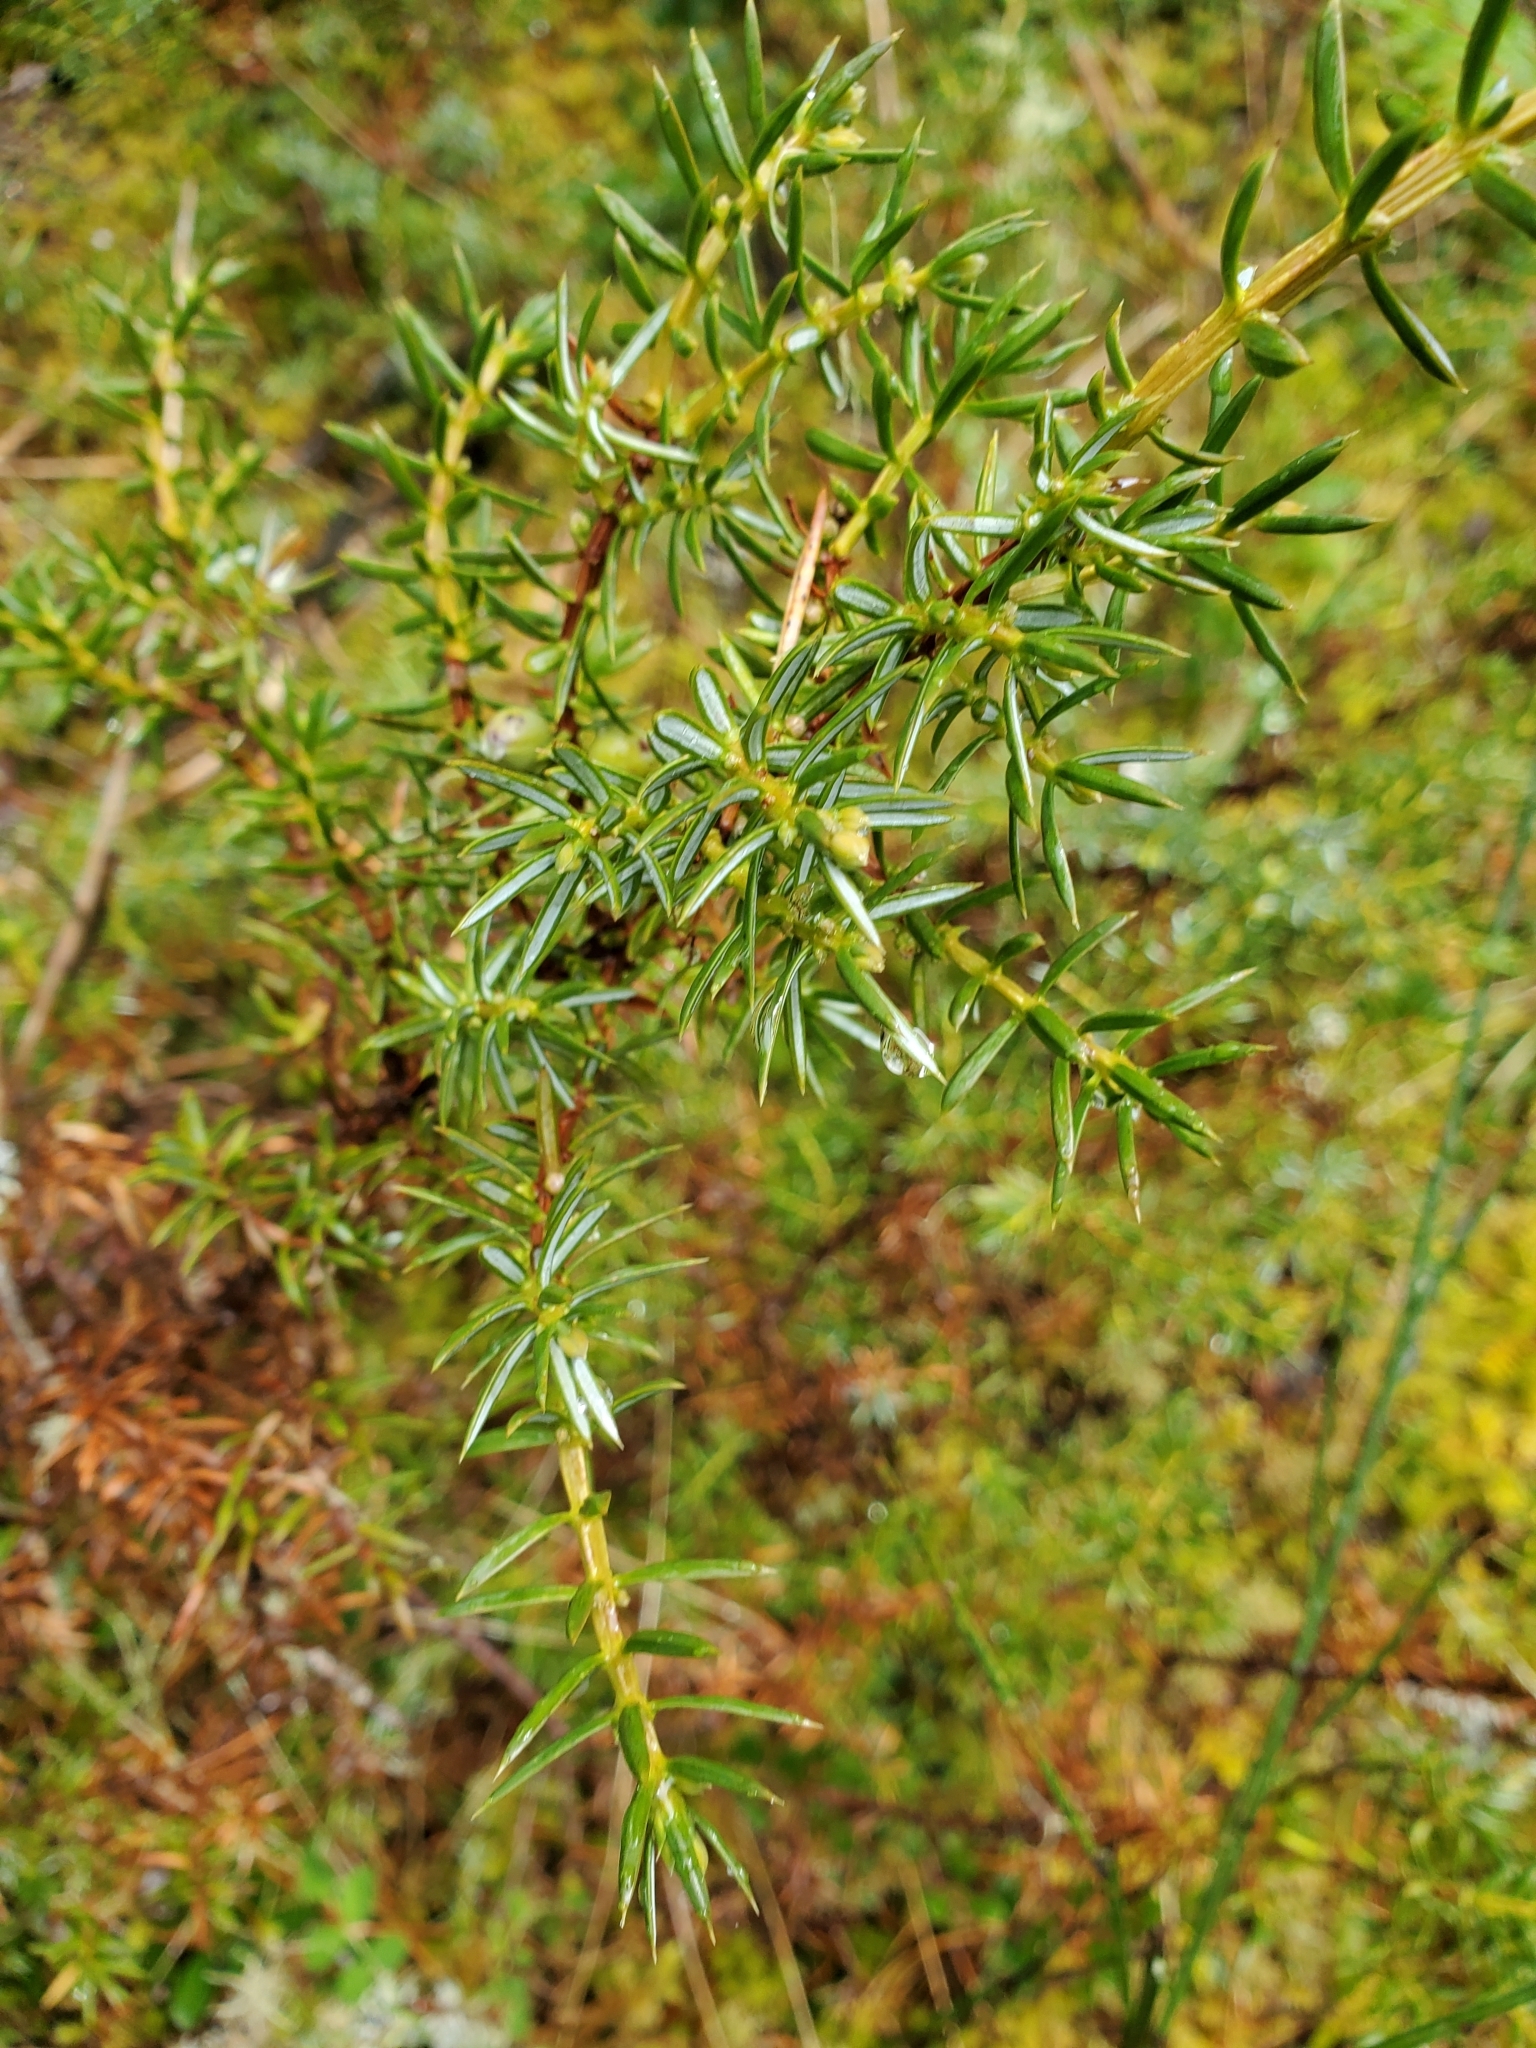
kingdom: Plantae
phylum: Tracheophyta
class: Pinopsida
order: Pinales
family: Cupressaceae
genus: Juniperus
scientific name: Juniperus communis
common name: Common juniper
